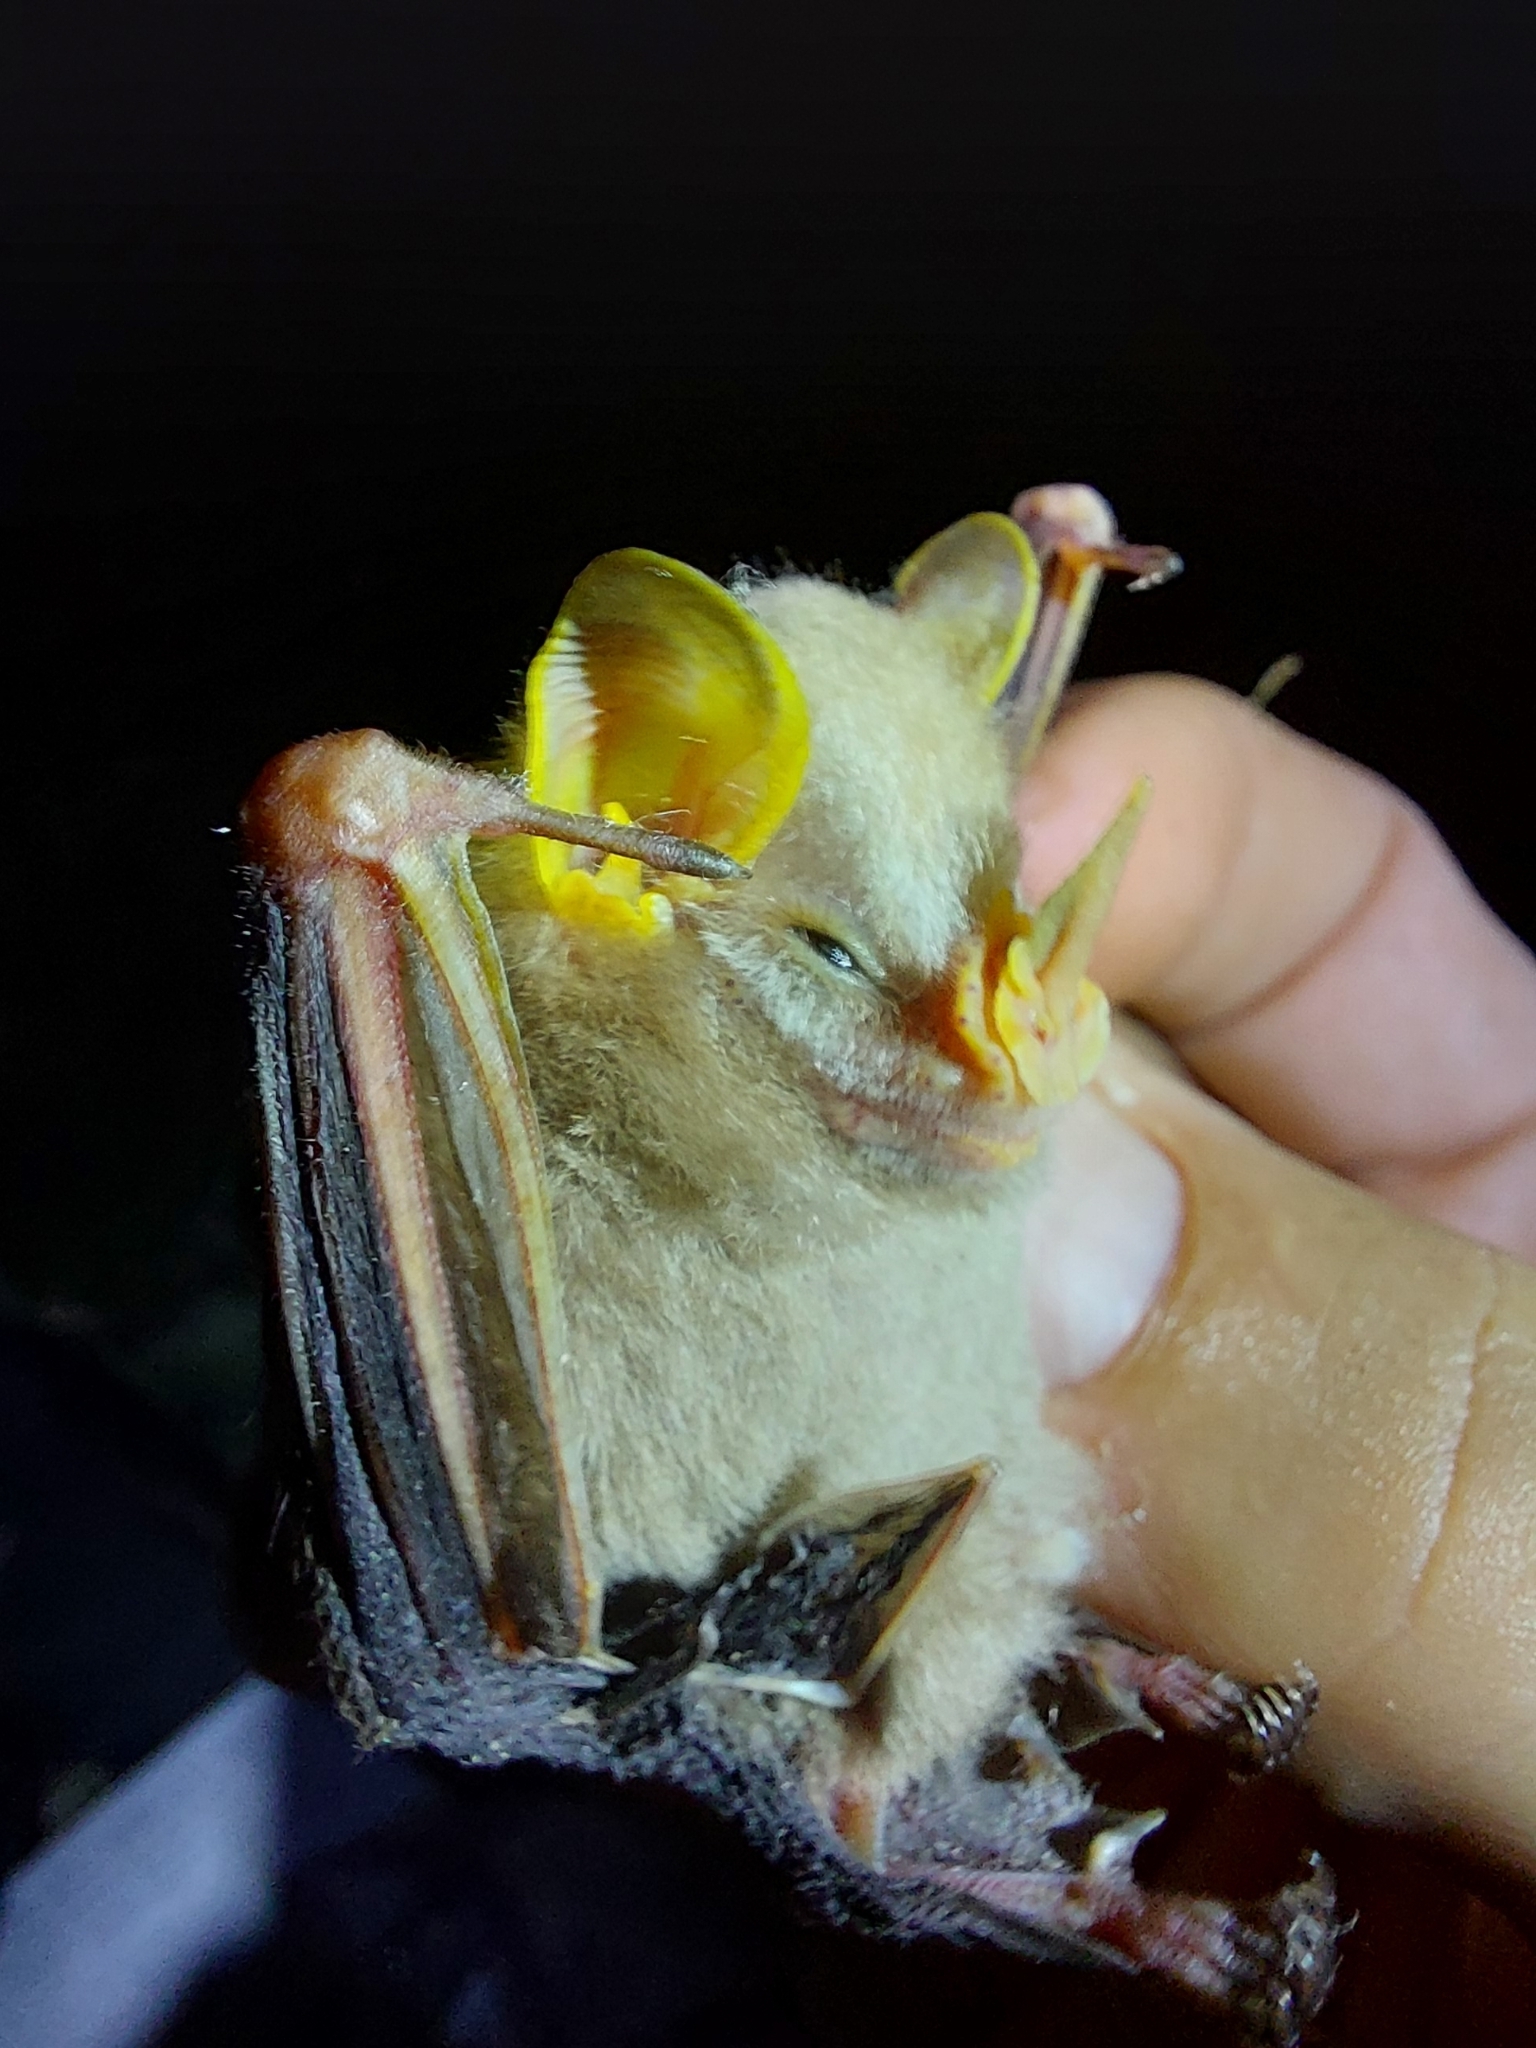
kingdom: Animalia
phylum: Chordata
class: Mammalia
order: Chiroptera
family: Phyllostomidae
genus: Mesophylla
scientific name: Mesophylla macconnelli
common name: Macconnell's bat
